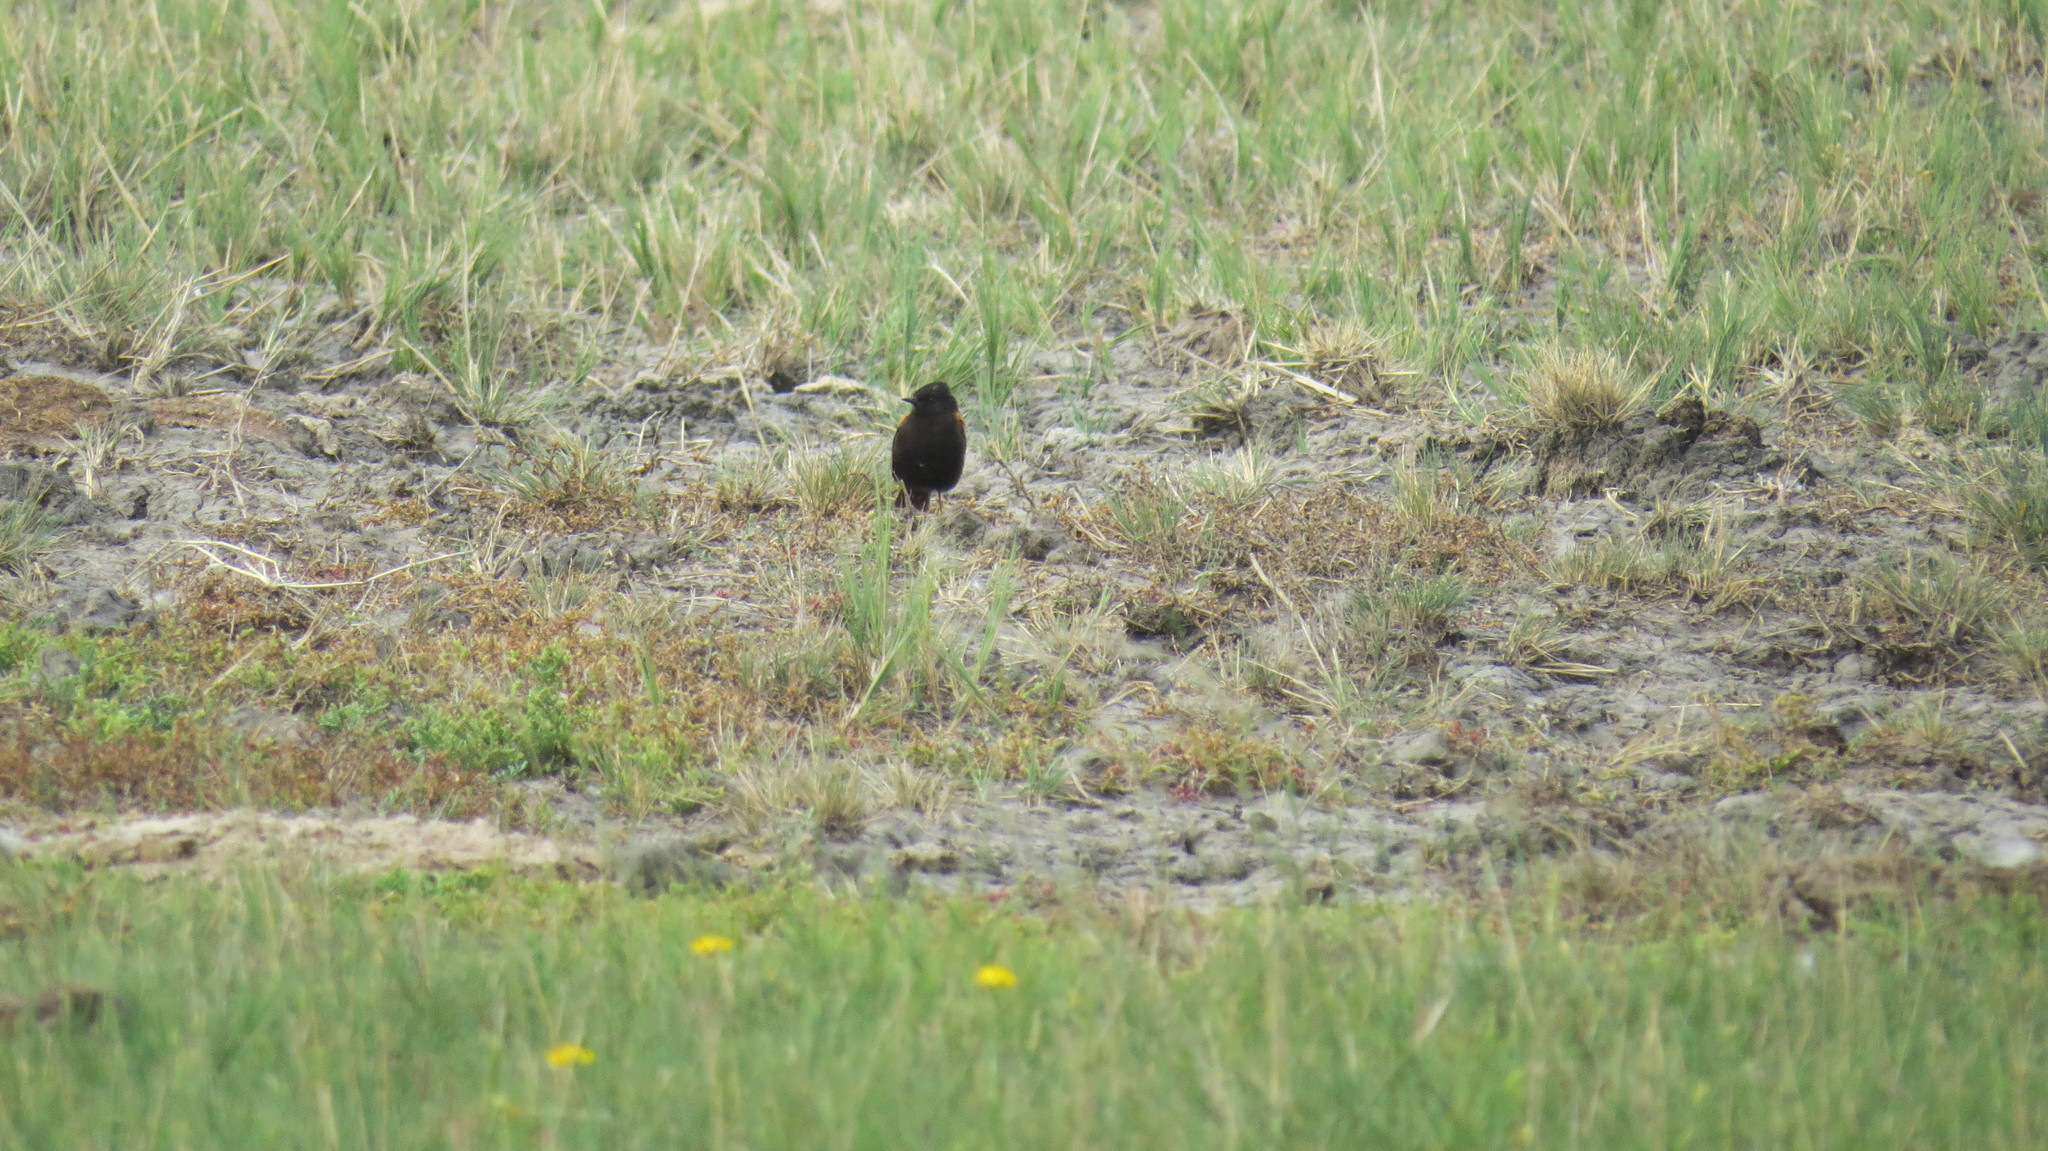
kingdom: Animalia
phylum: Chordata
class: Aves
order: Passeriformes
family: Tyrannidae
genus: Lessonia
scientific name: Lessonia rufa
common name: Austral negrito
